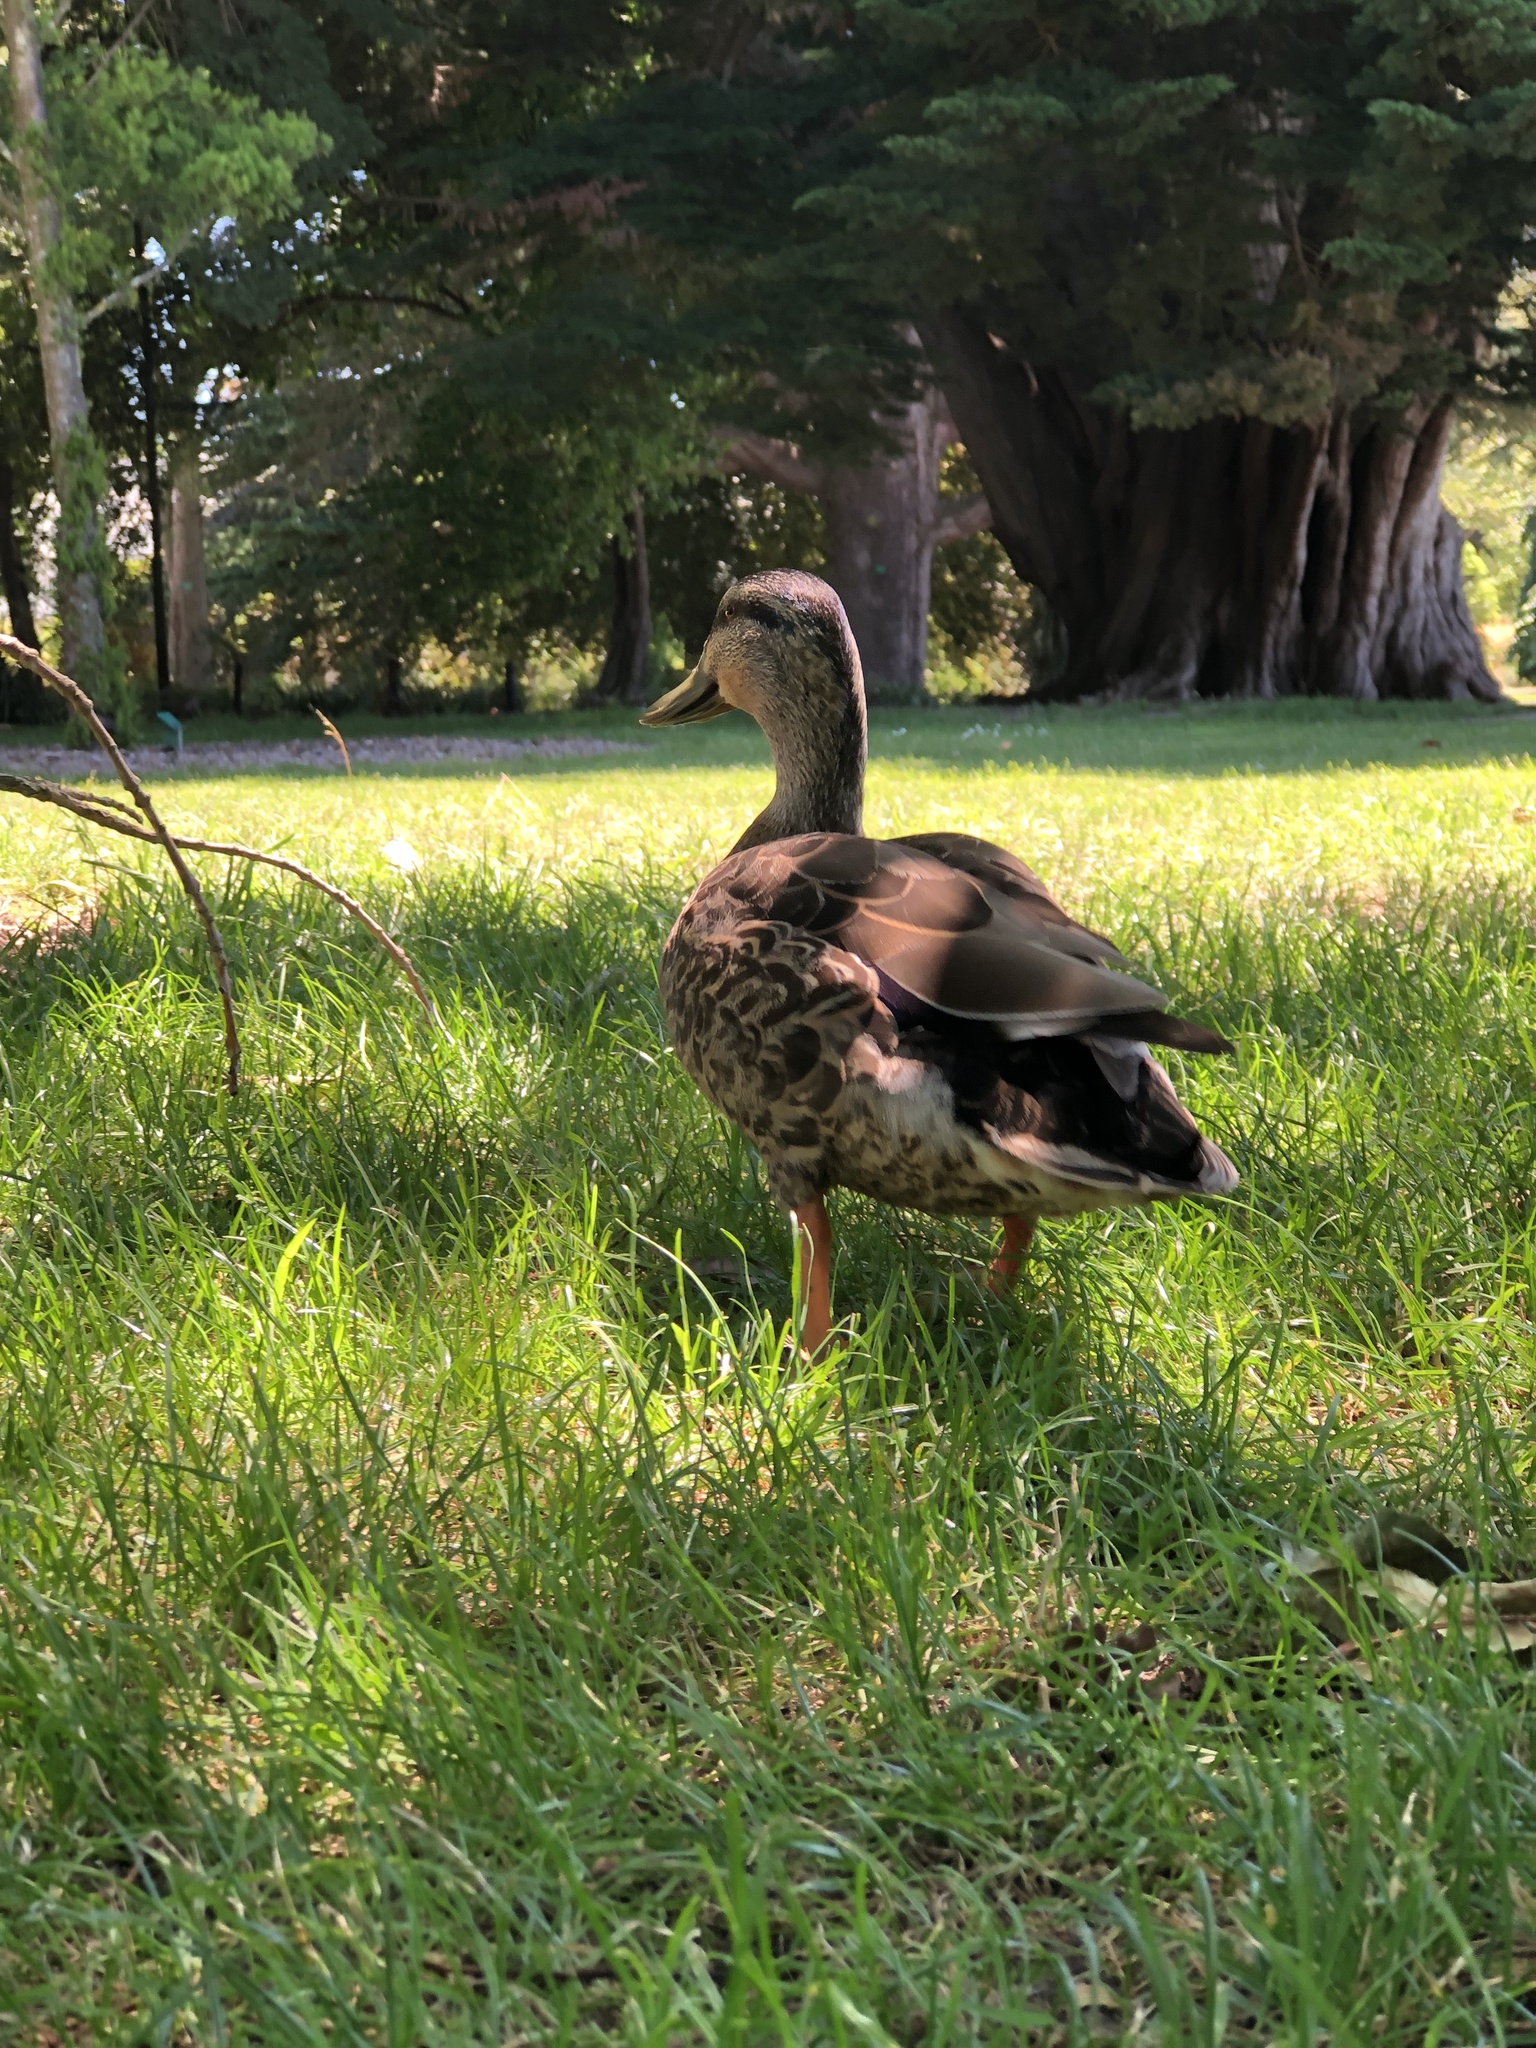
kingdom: Animalia
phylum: Chordata
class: Aves
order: Anseriformes
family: Anatidae
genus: Anas
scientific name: Anas
